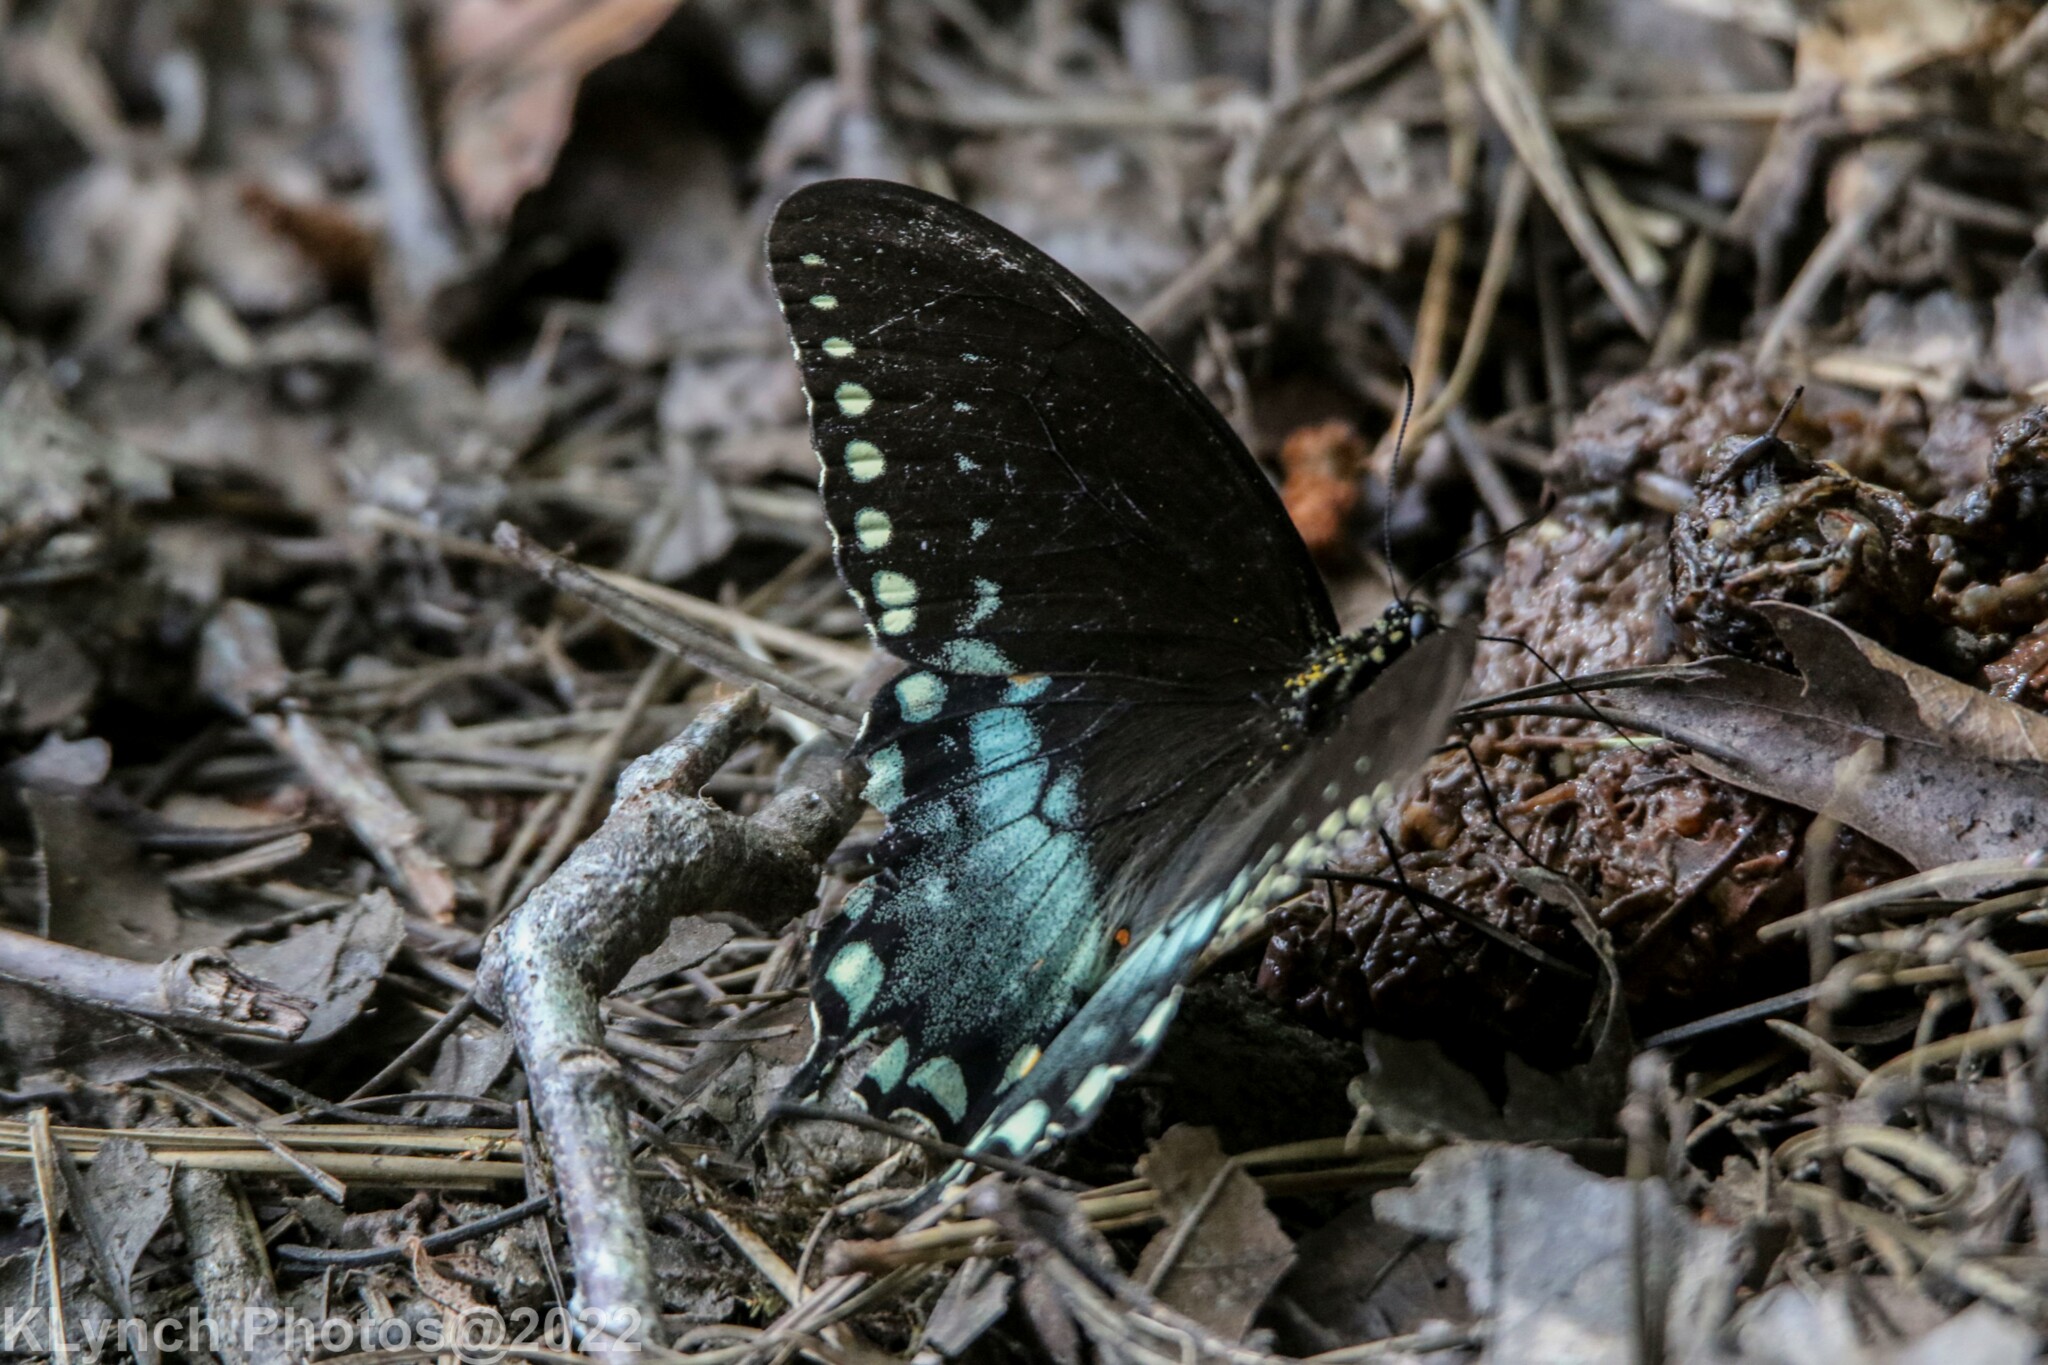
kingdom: Animalia
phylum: Arthropoda
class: Insecta
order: Lepidoptera
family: Papilionidae
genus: Papilio
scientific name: Papilio troilus
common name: Spicebush swallowtail
